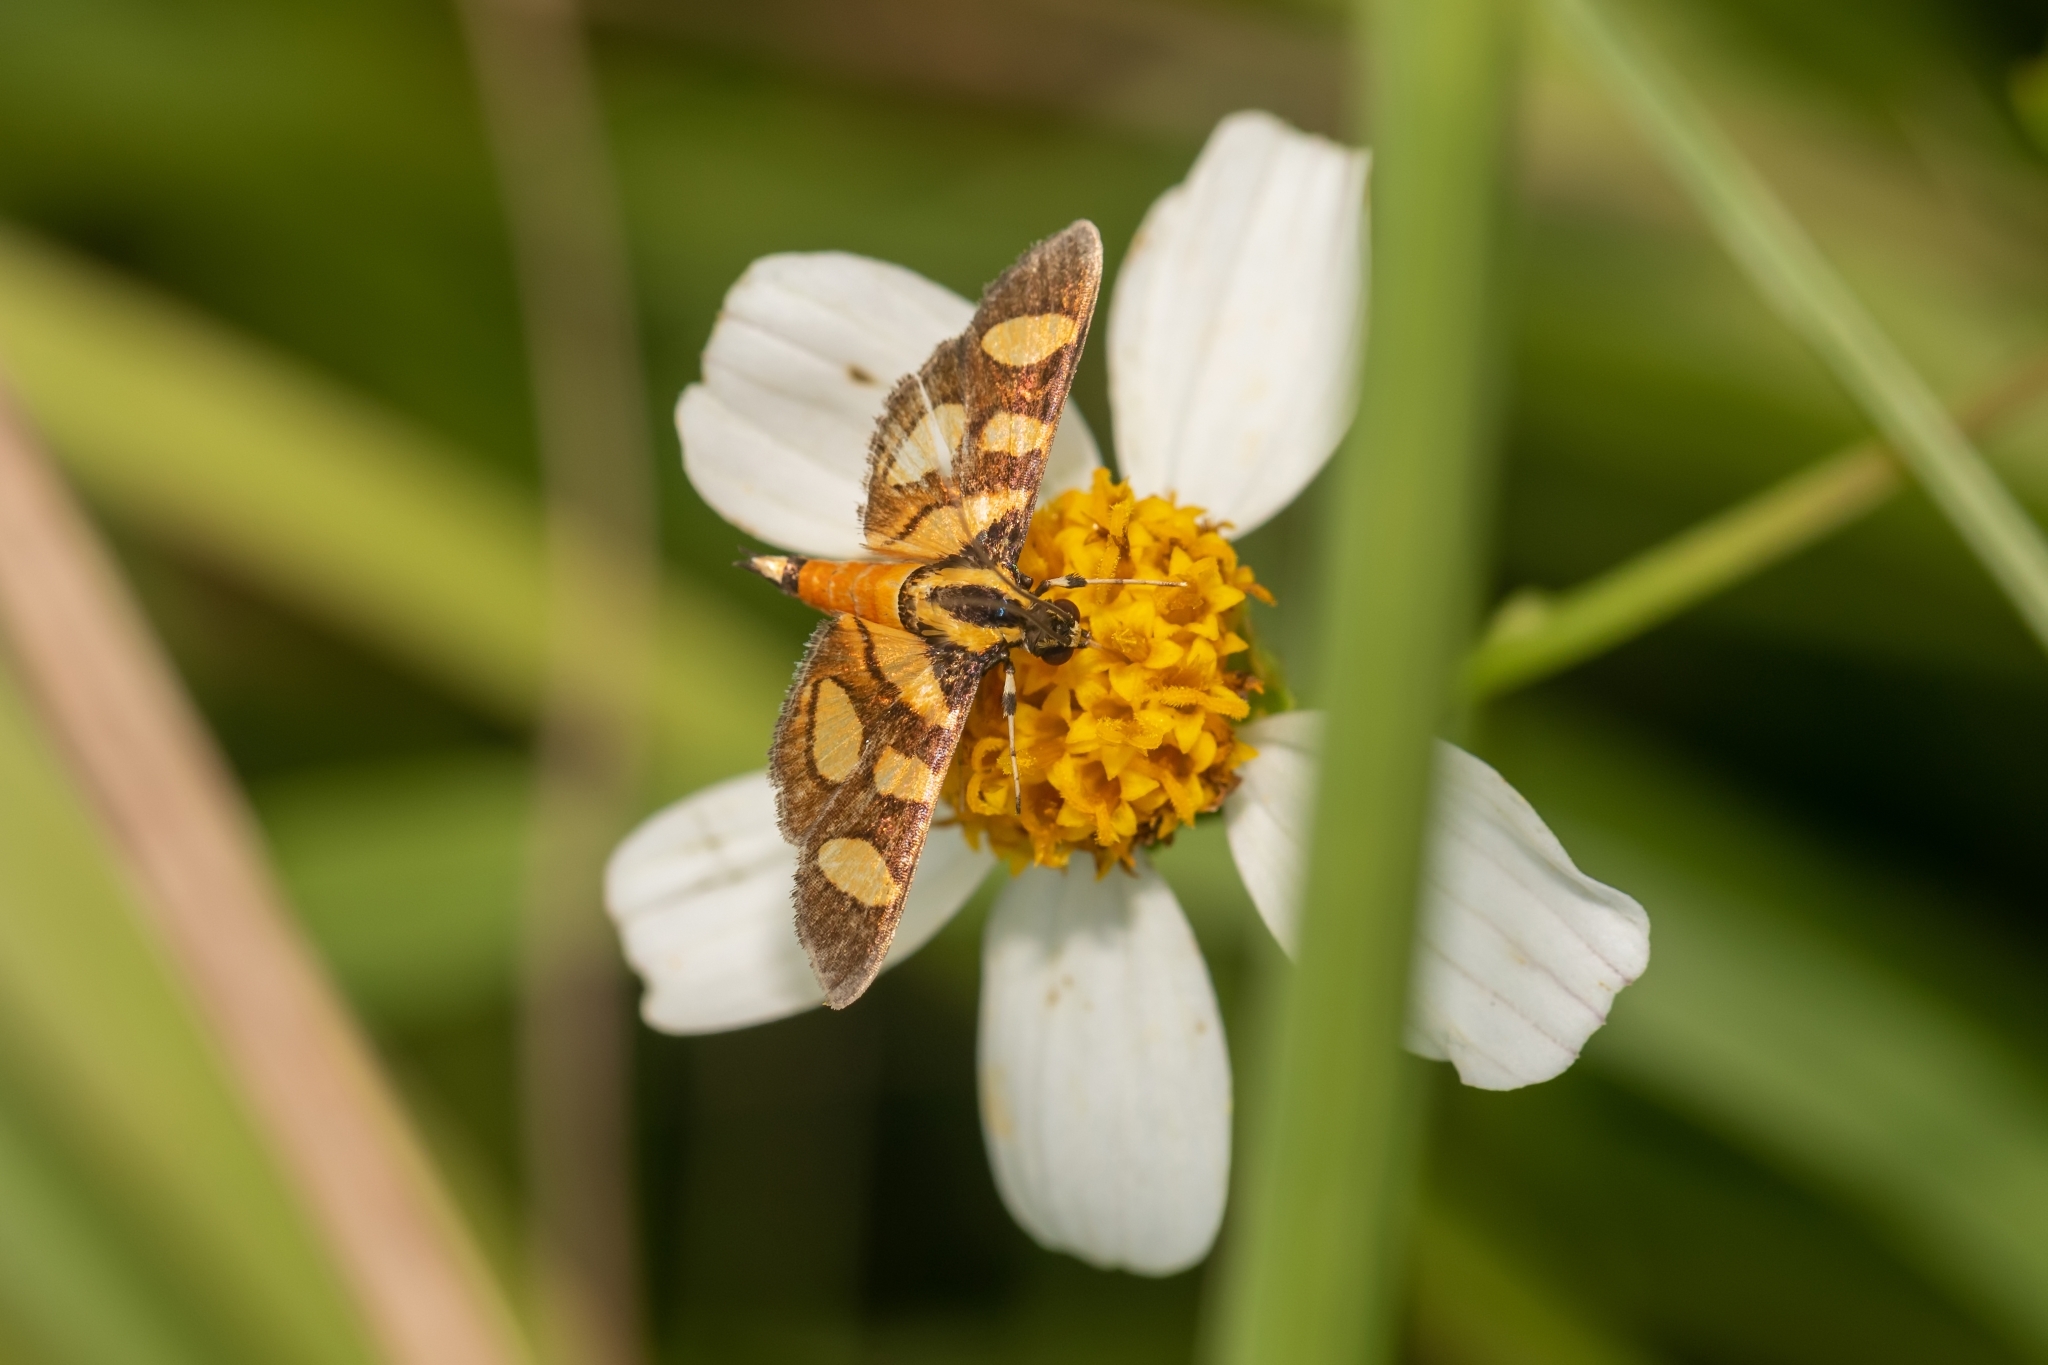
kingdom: Animalia
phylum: Arthropoda
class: Insecta
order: Lepidoptera
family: Crambidae
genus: Syngamia
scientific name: Syngamia florella
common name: Orange-spotted flower moth
